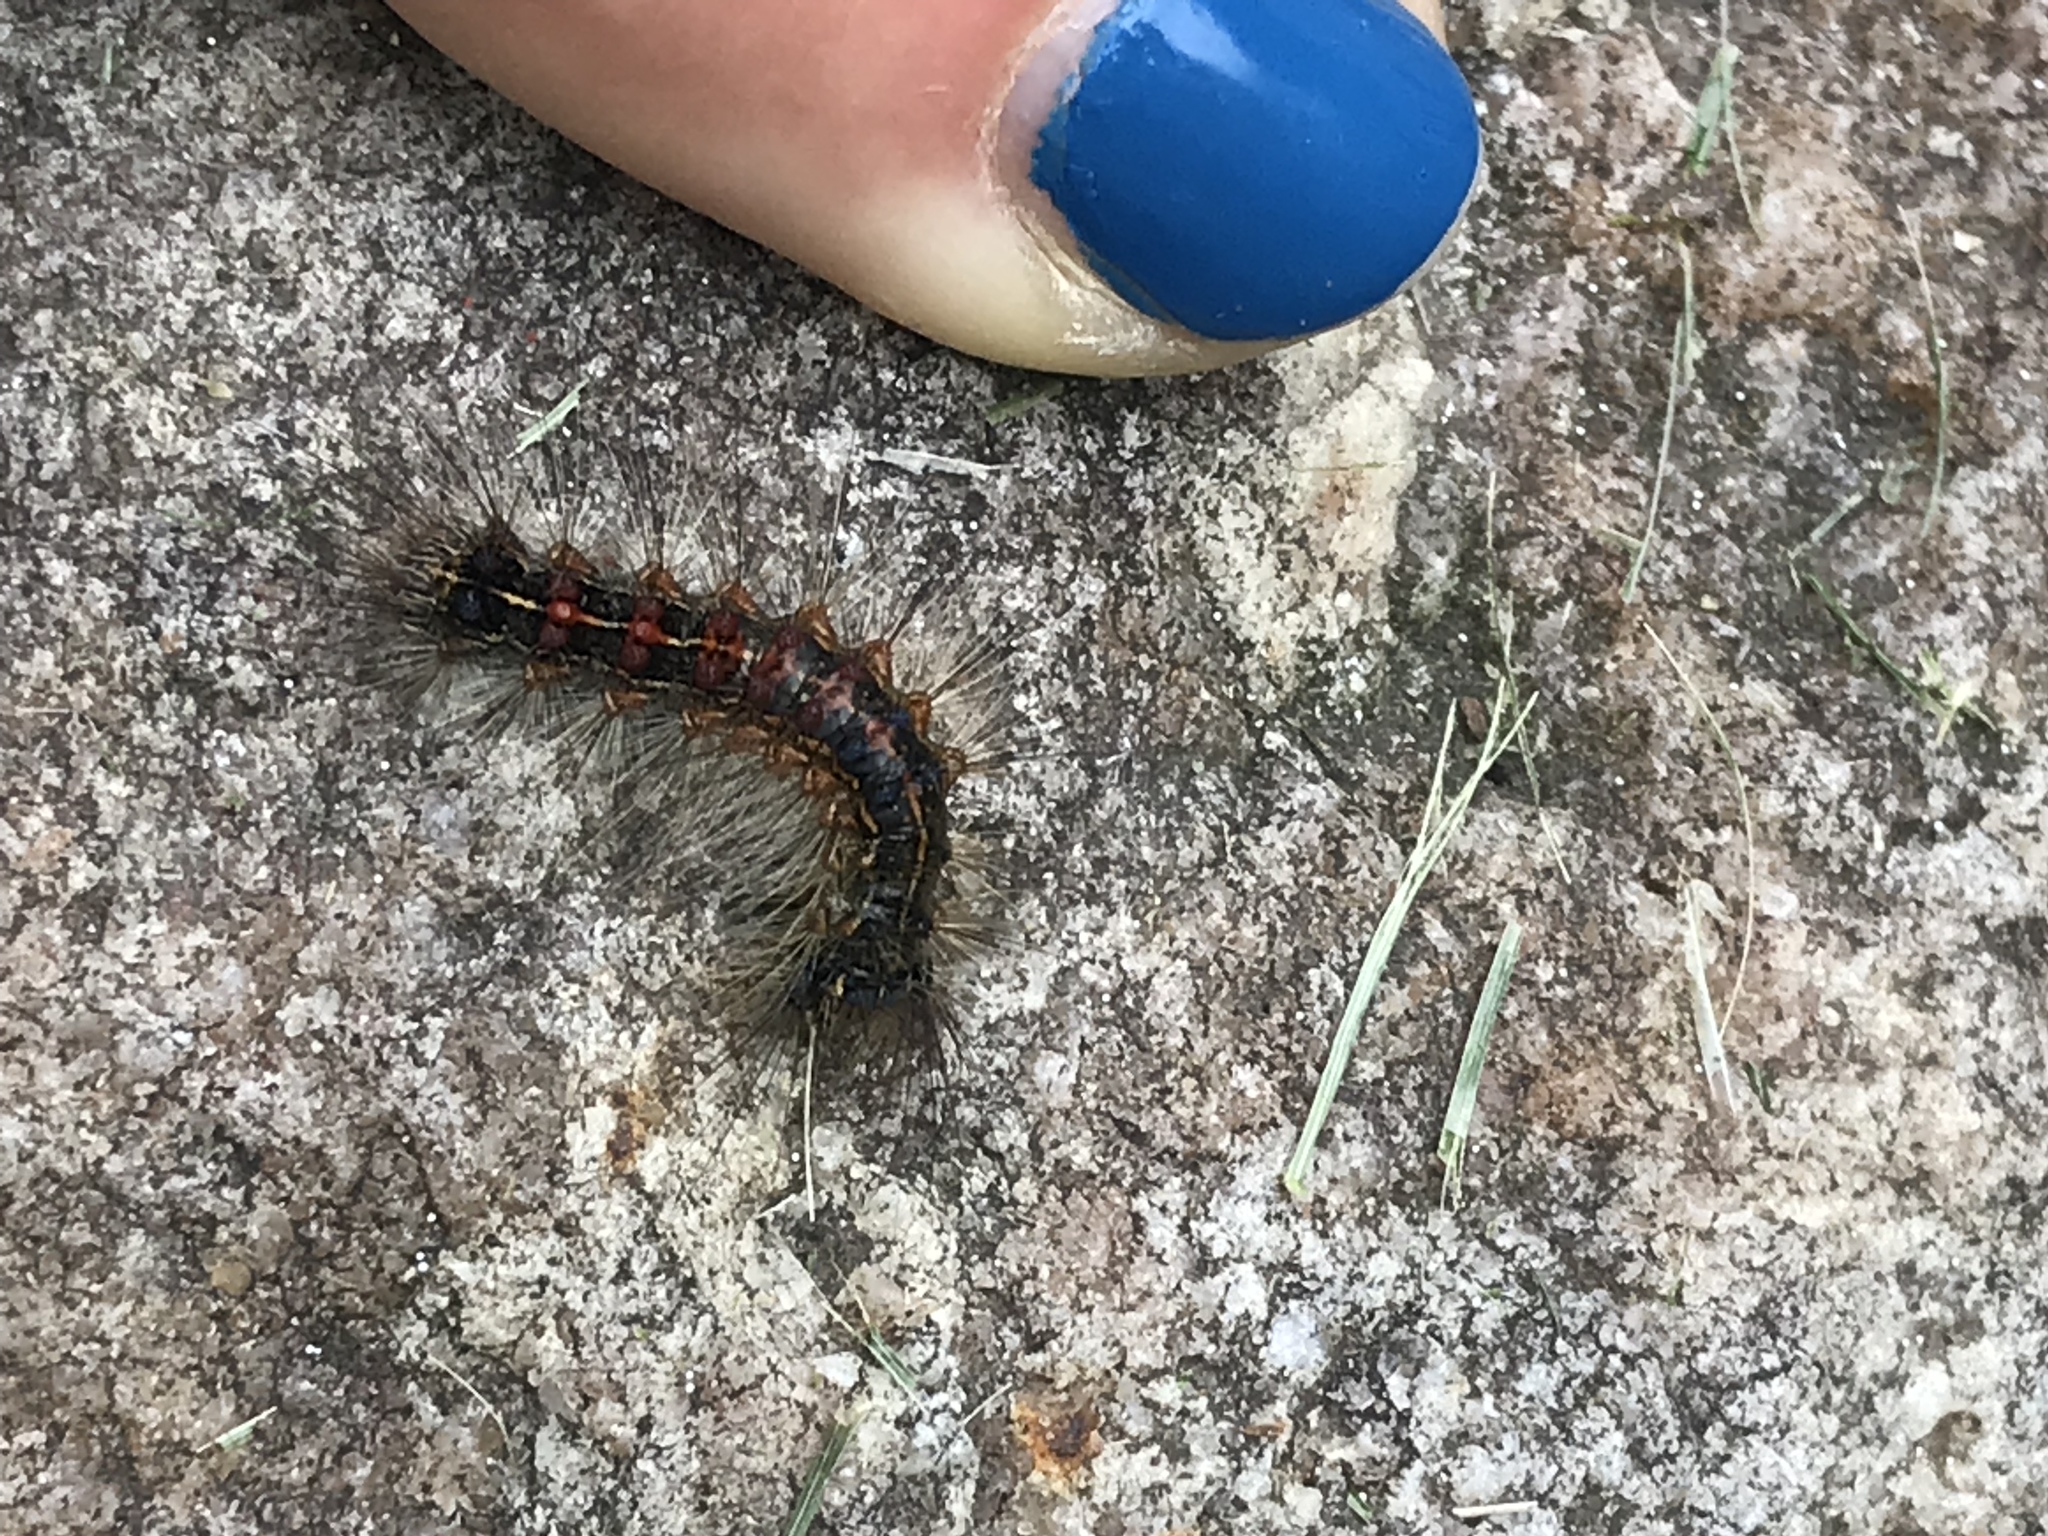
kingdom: Animalia
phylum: Arthropoda
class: Insecta
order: Lepidoptera
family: Erebidae
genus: Lymantria
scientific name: Lymantria dispar
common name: Gypsy moth
